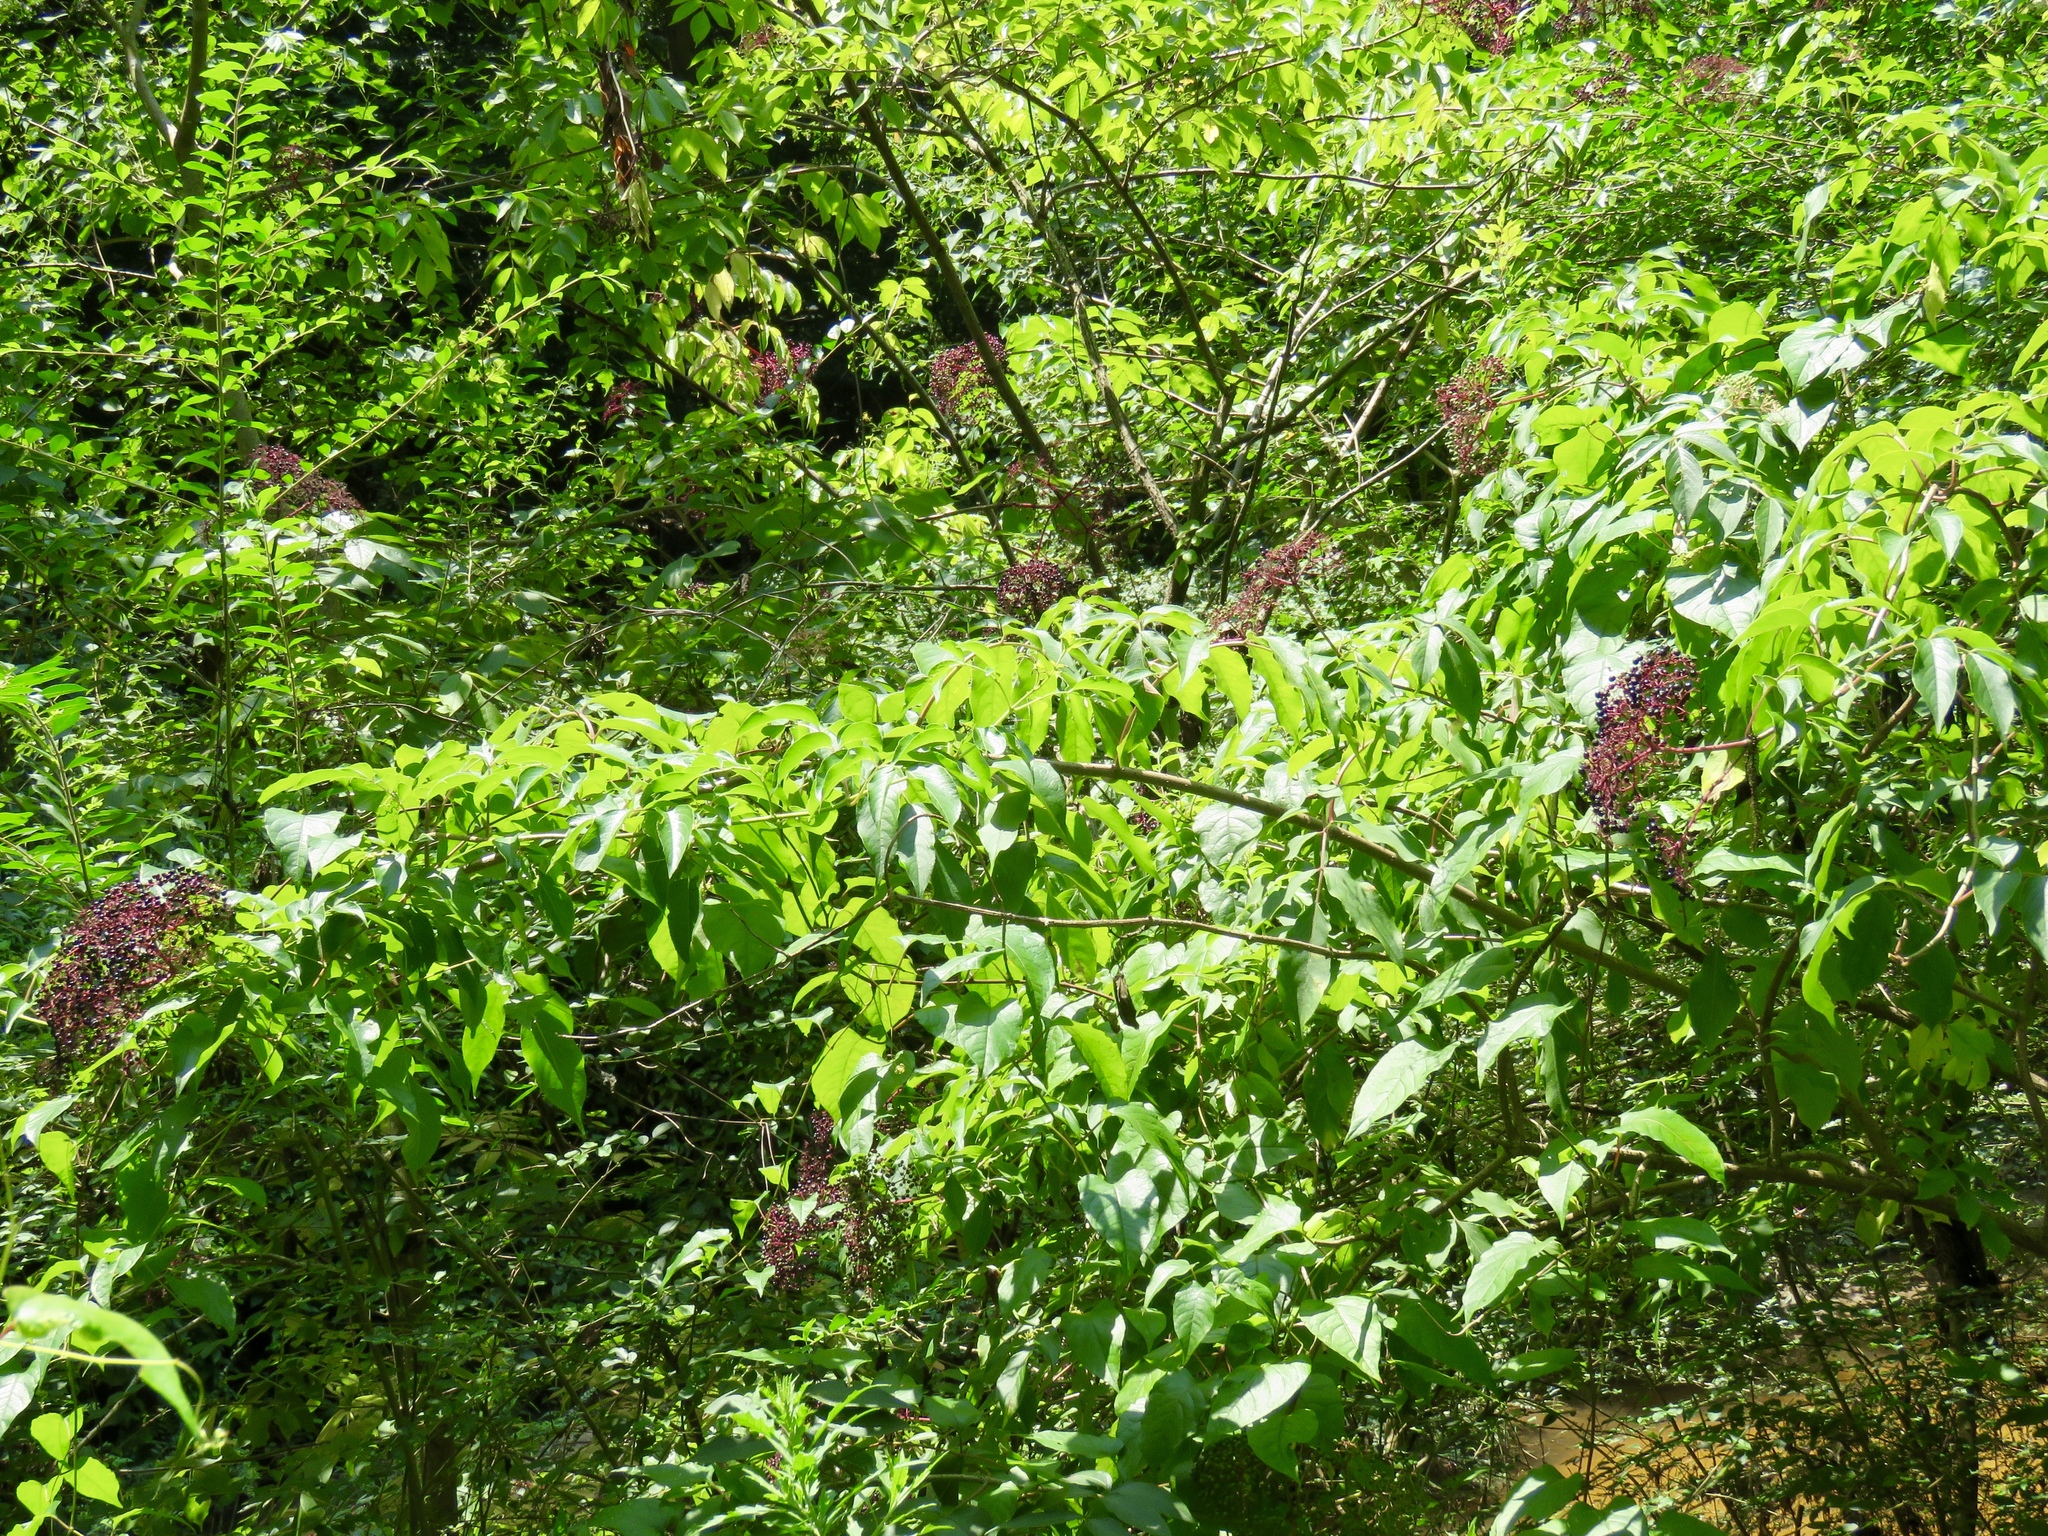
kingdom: Plantae
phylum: Tracheophyta
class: Magnoliopsida
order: Dipsacales
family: Viburnaceae
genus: Sambucus
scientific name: Sambucus canadensis
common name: American elder
